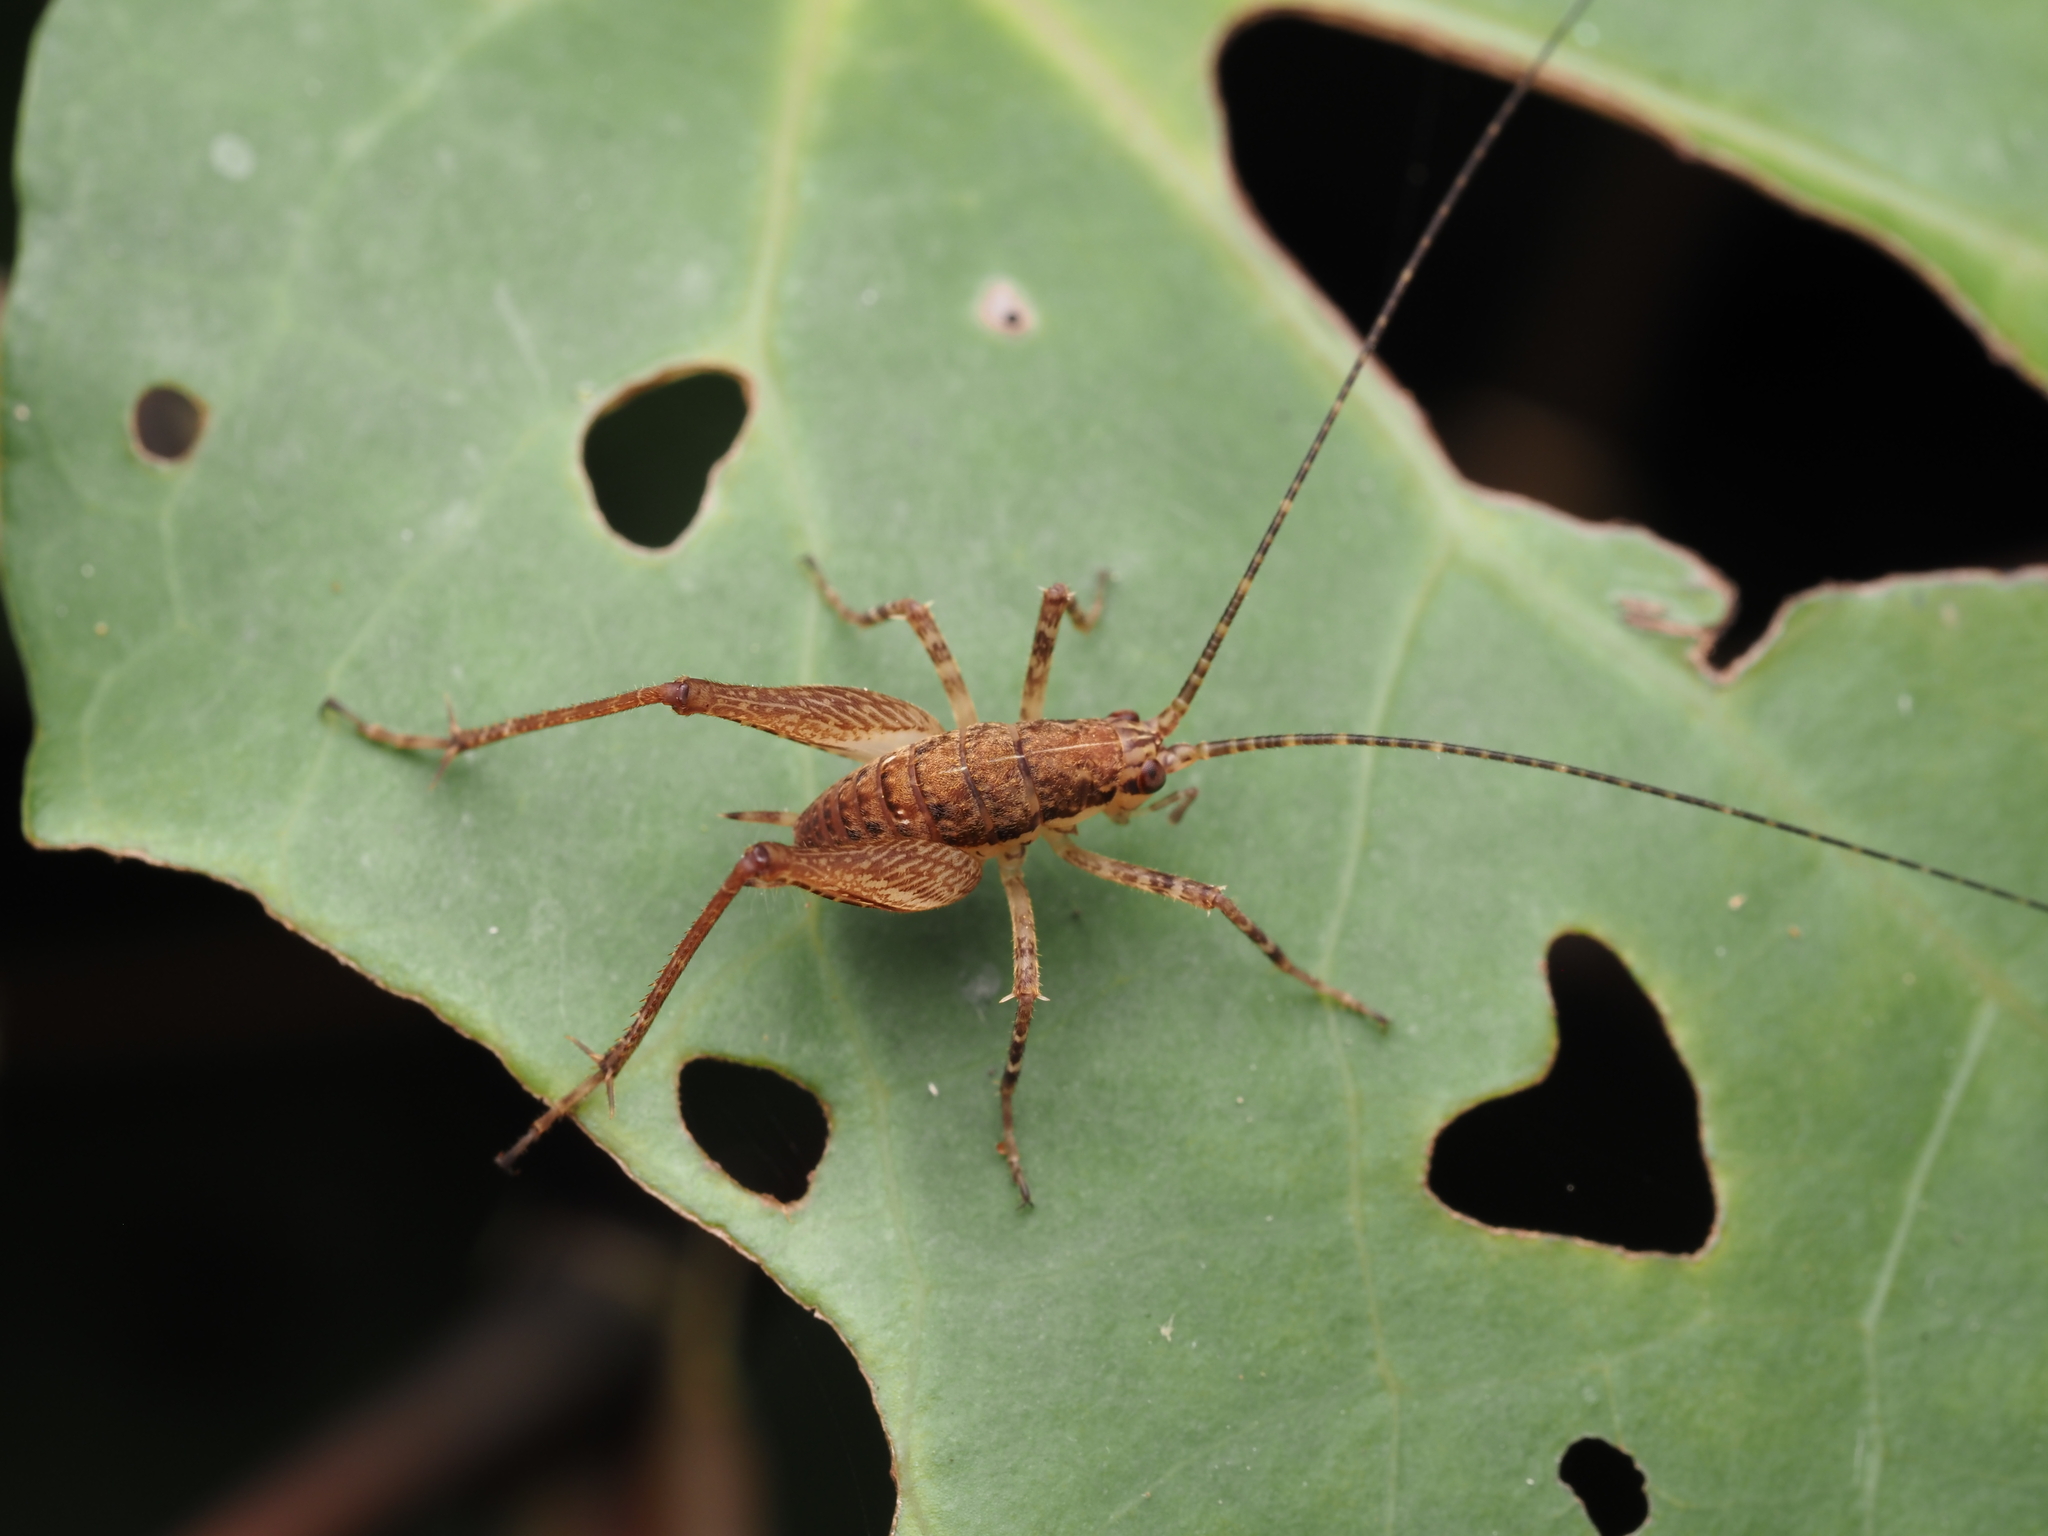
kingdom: Animalia
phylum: Arthropoda
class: Insecta
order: Orthoptera
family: Rhaphidophoridae
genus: Neonetus
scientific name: Neonetus variegatus
